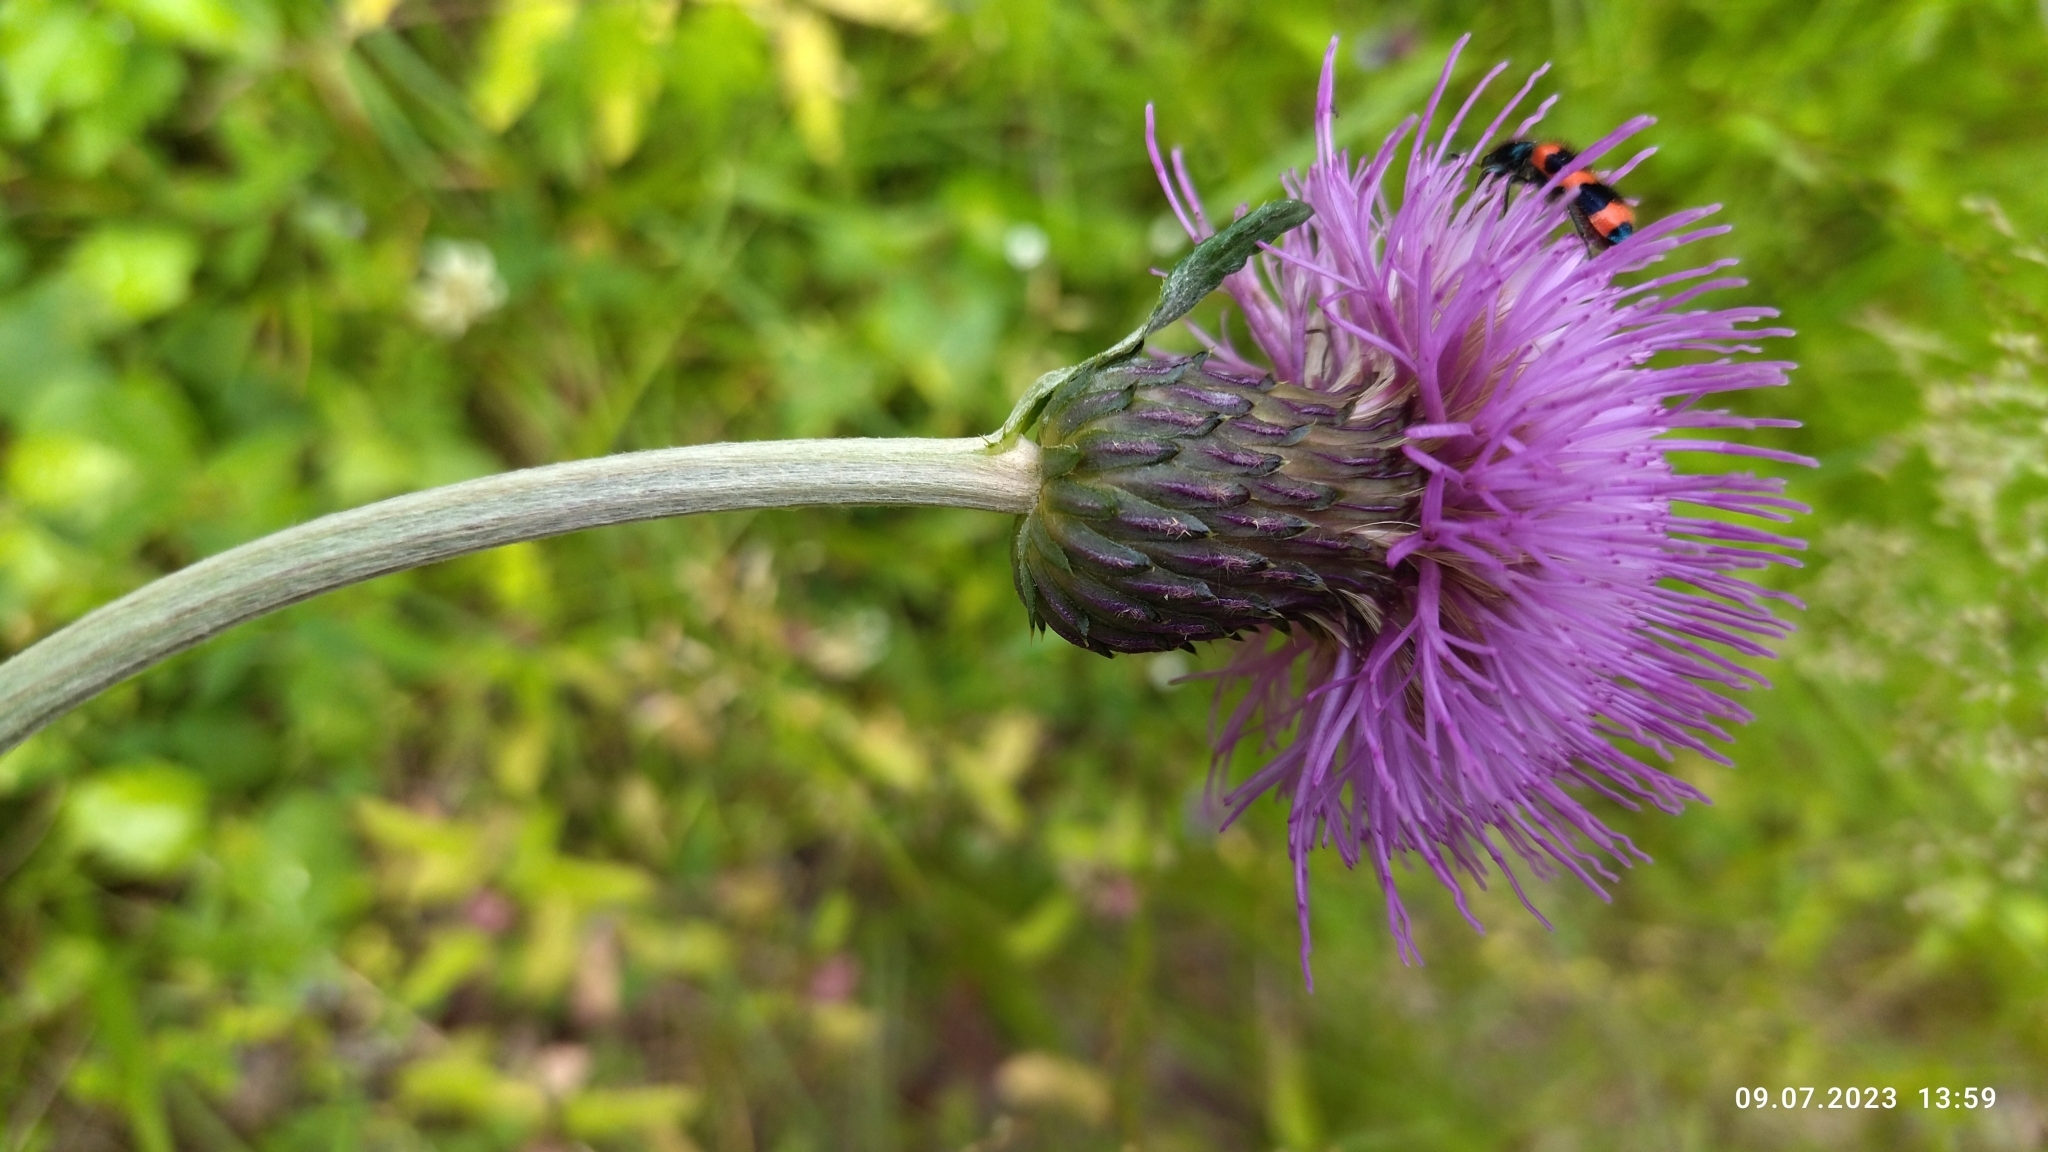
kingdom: Plantae
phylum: Tracheophyta
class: Magnoliopsida
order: Asterales
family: Asteraceae
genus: Cirsium
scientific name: Cirsium heterophyllum
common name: Melancholy thistle
